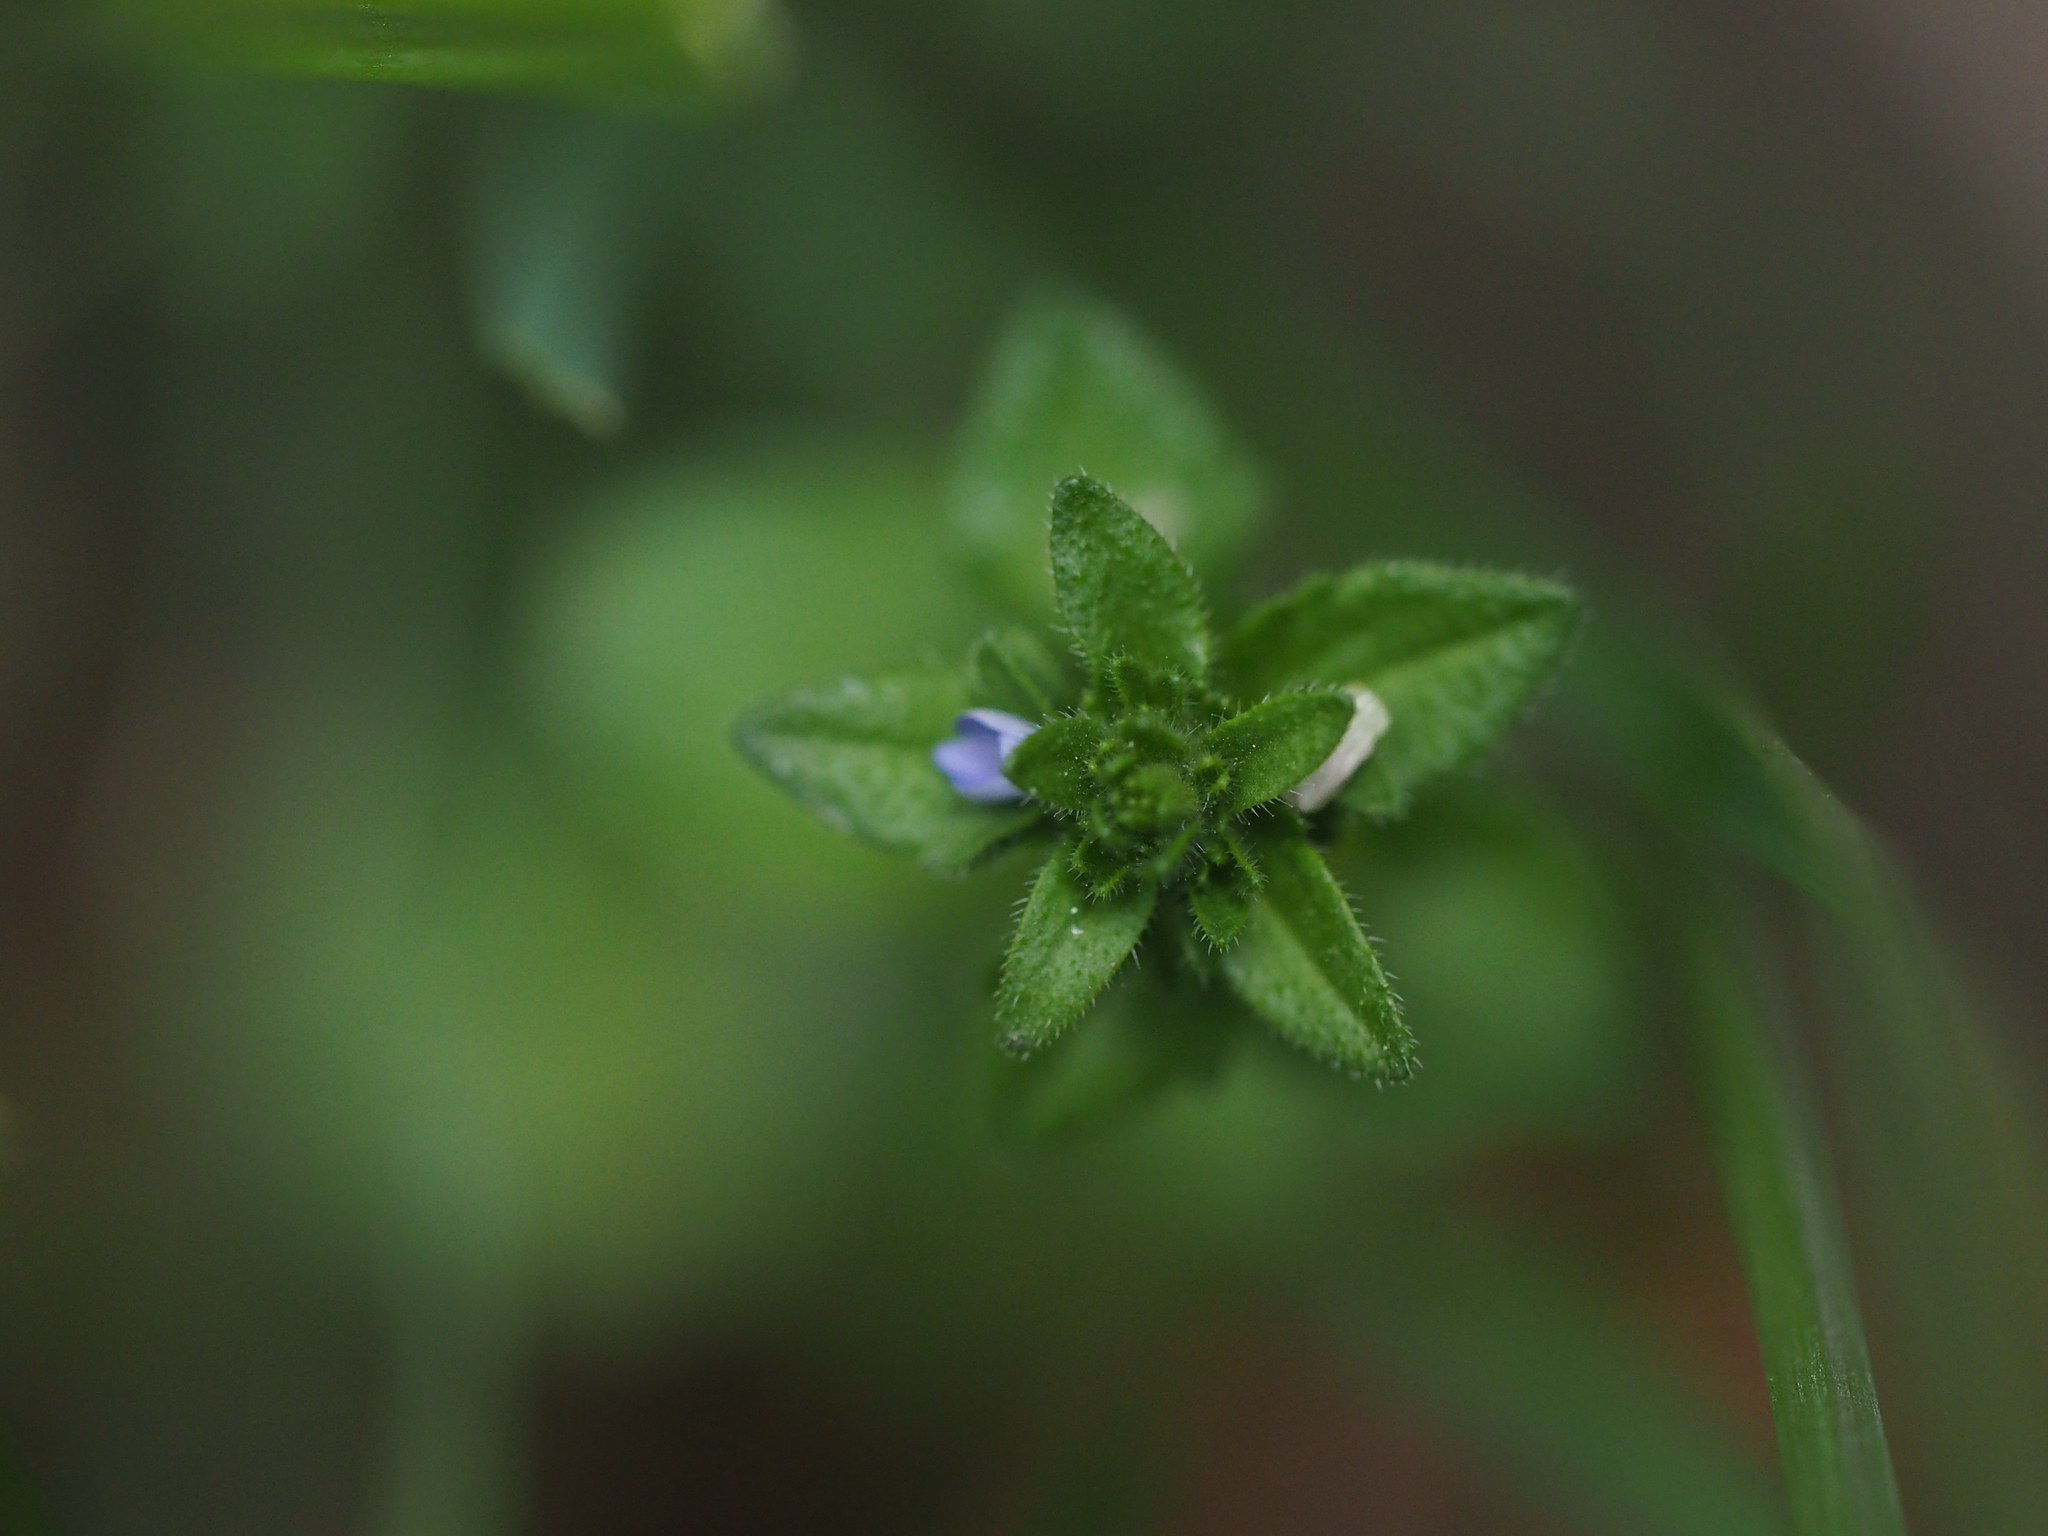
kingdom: Plantae
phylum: Tracheophyta
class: Magnoliopsida
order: Lamiales
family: Plantaginaceae
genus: Veronica
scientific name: Veronica arvensis
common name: Corn speedwell
